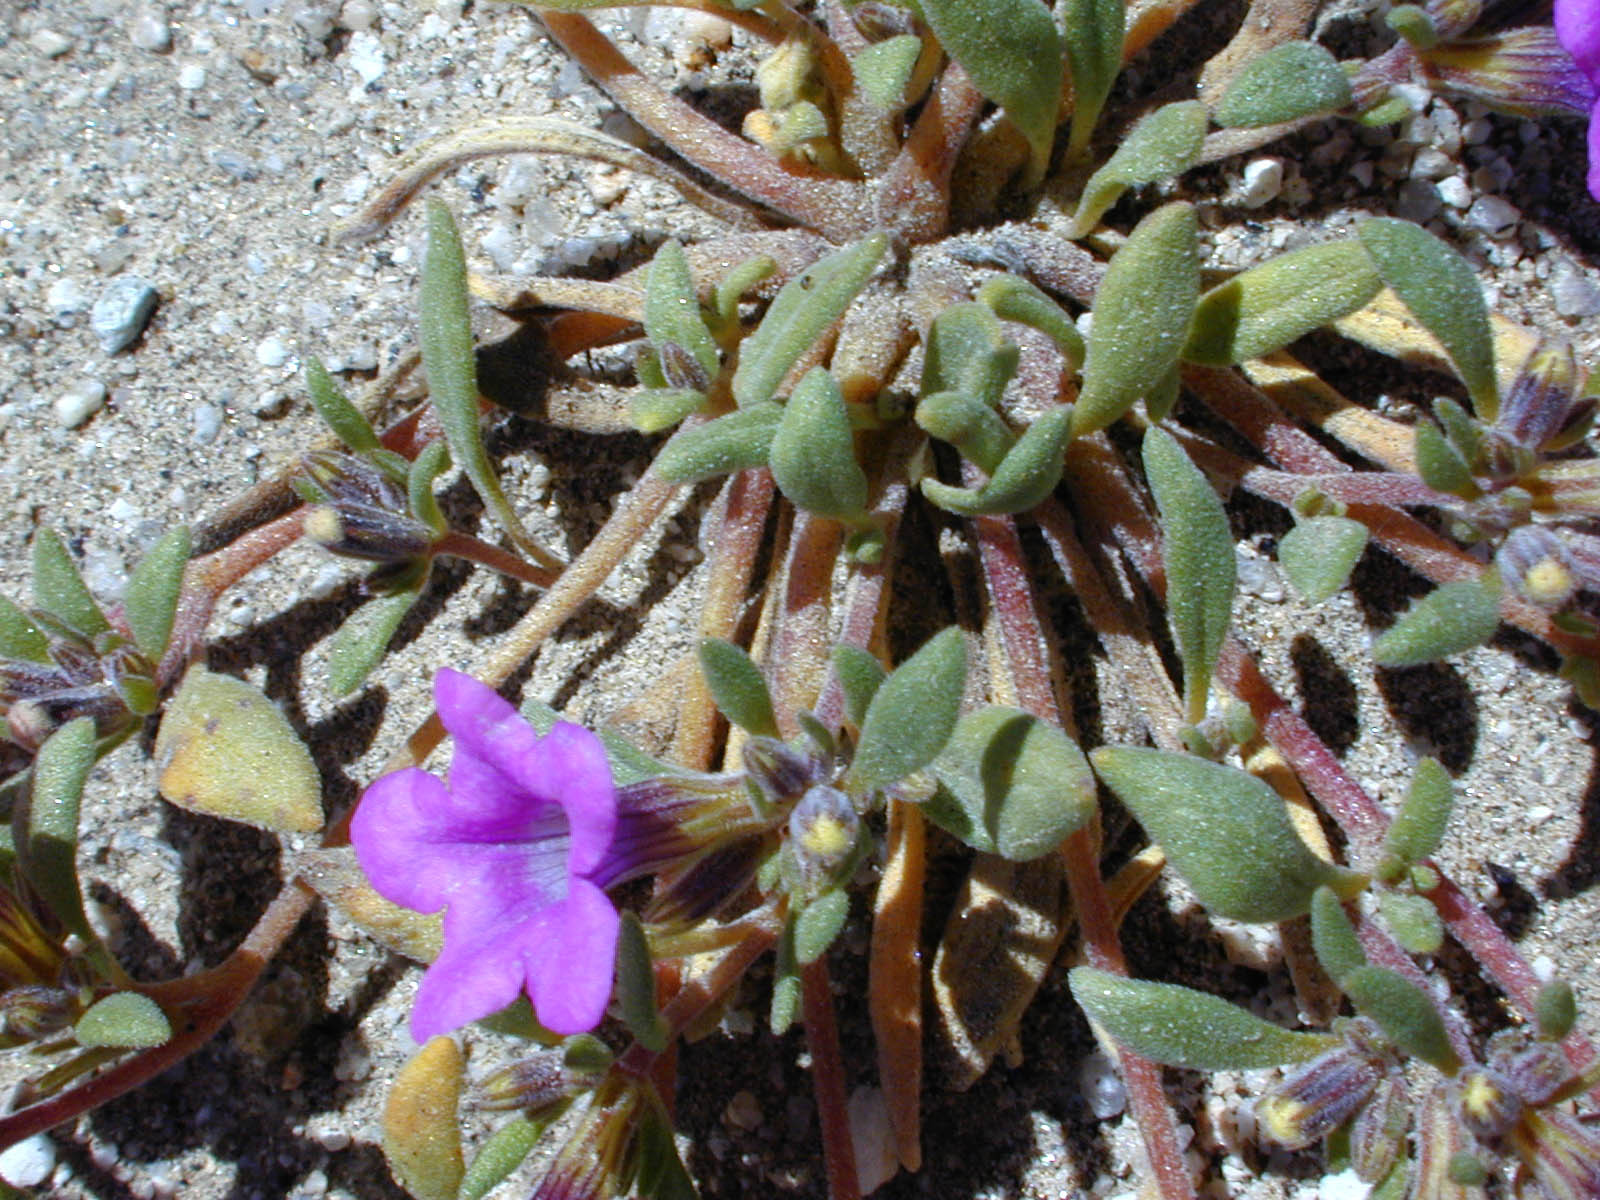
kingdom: Plantae
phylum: Tracheophyta
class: Magnoliopsida
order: Boraginales
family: Namaceae
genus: Nama
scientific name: Nama demissa
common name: Leafy nama
